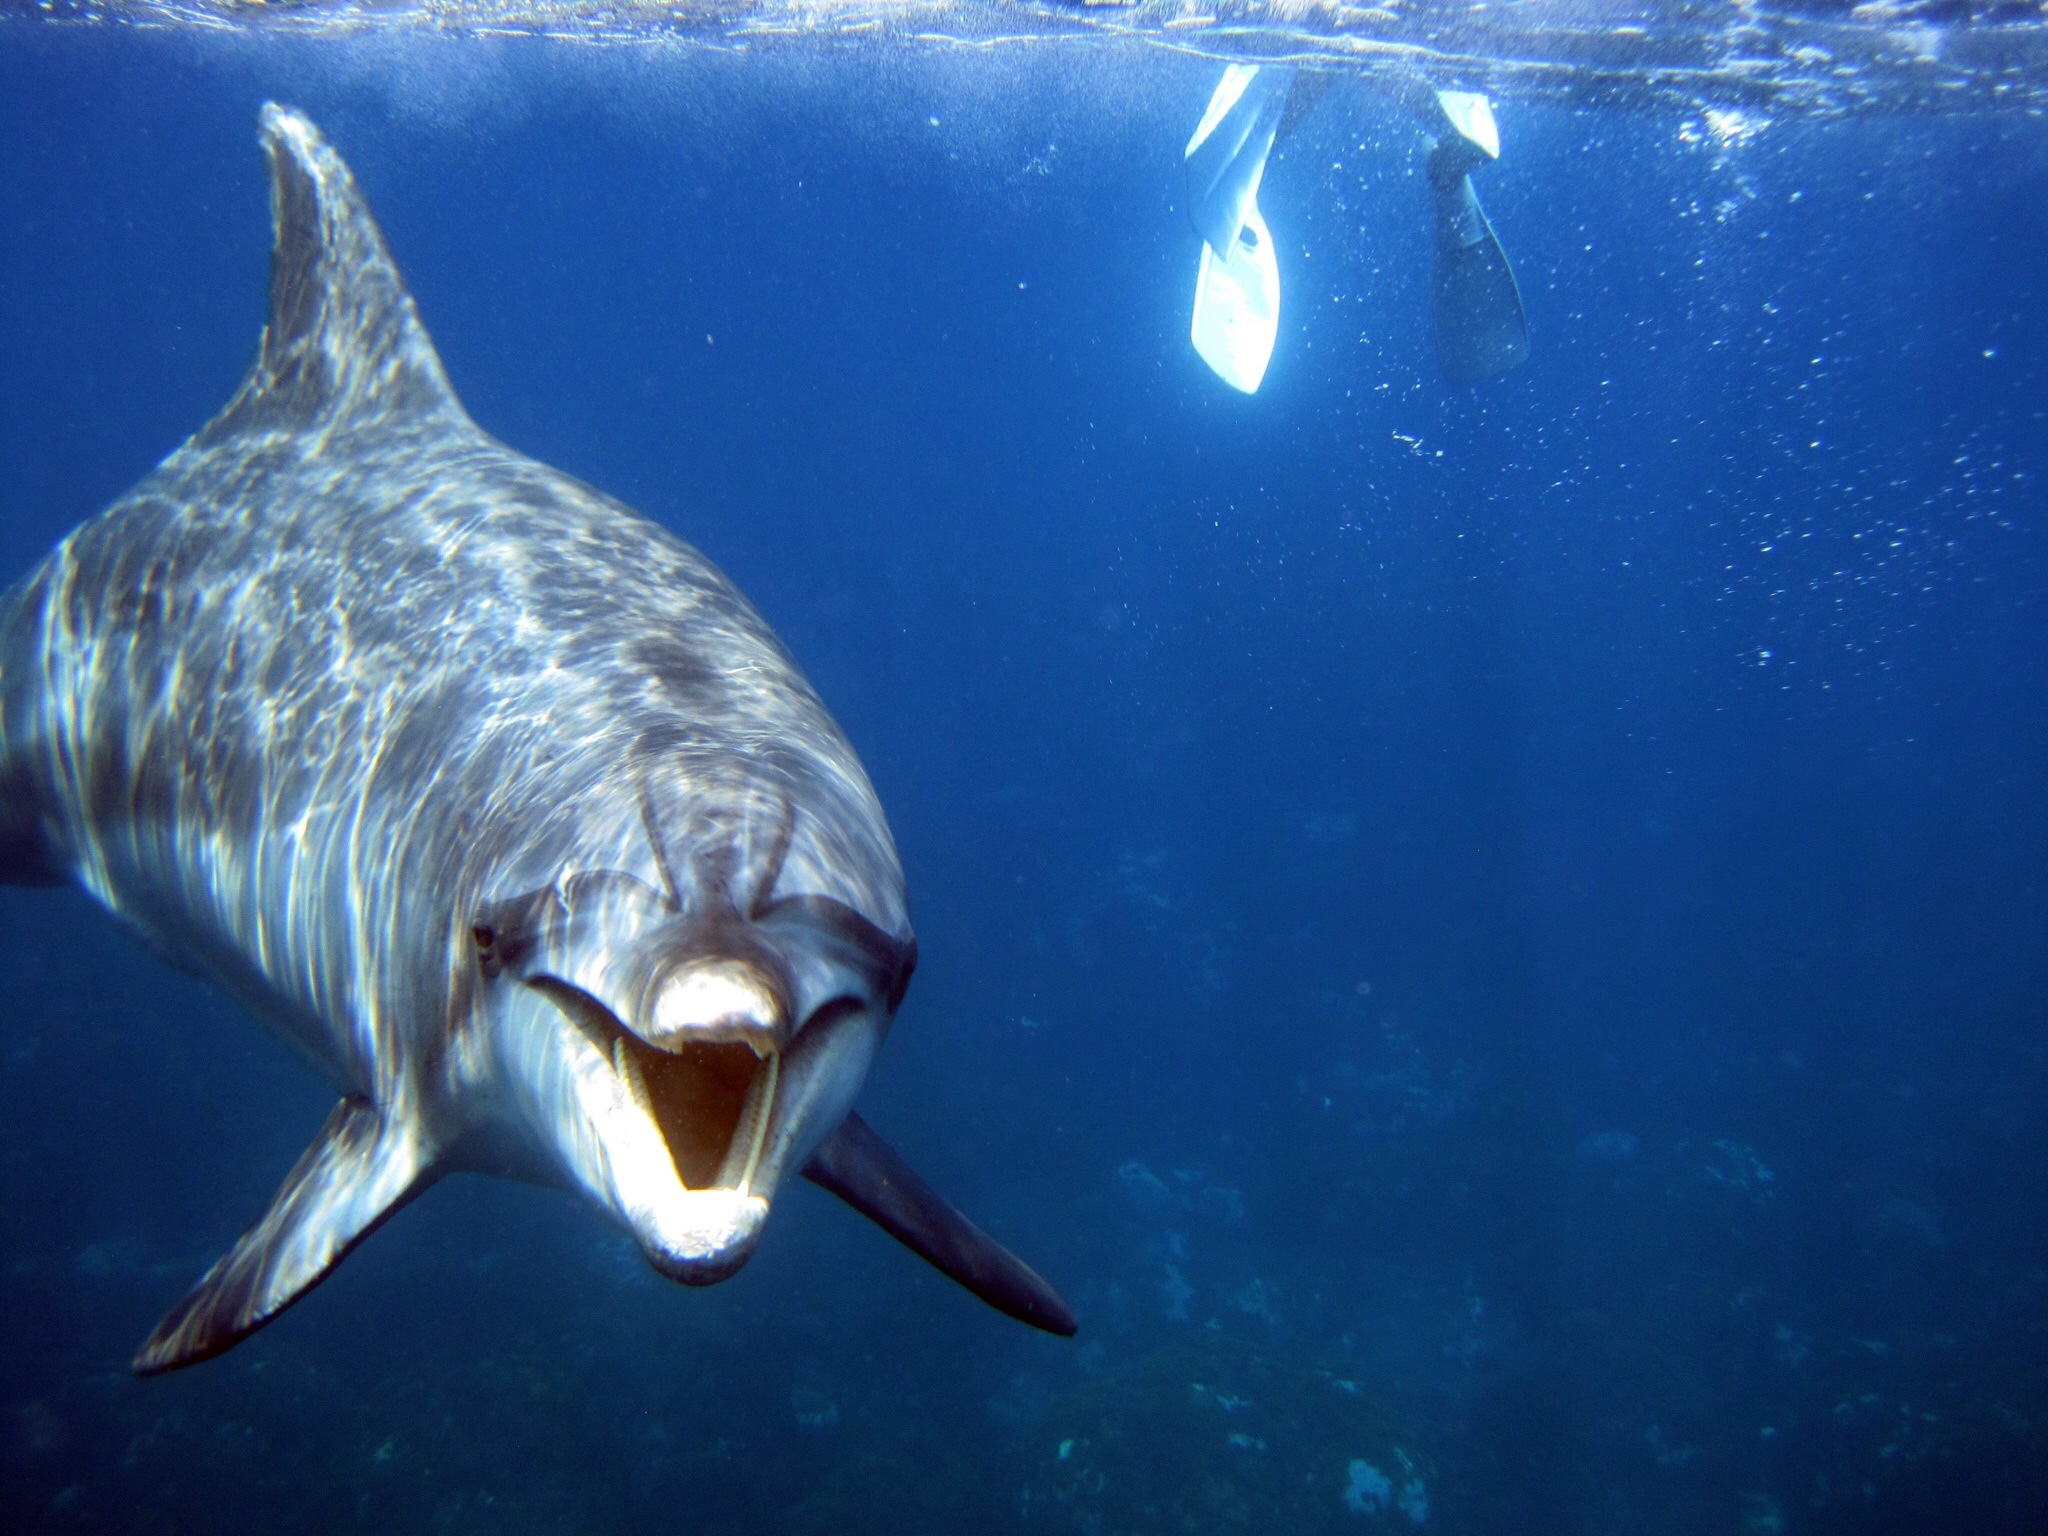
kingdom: Animalia
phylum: Chordata
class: Mammalia
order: Cetacea
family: Delphinidae
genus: Tursiops
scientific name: Tursiops truncatus
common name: Bottlenose dolphin
